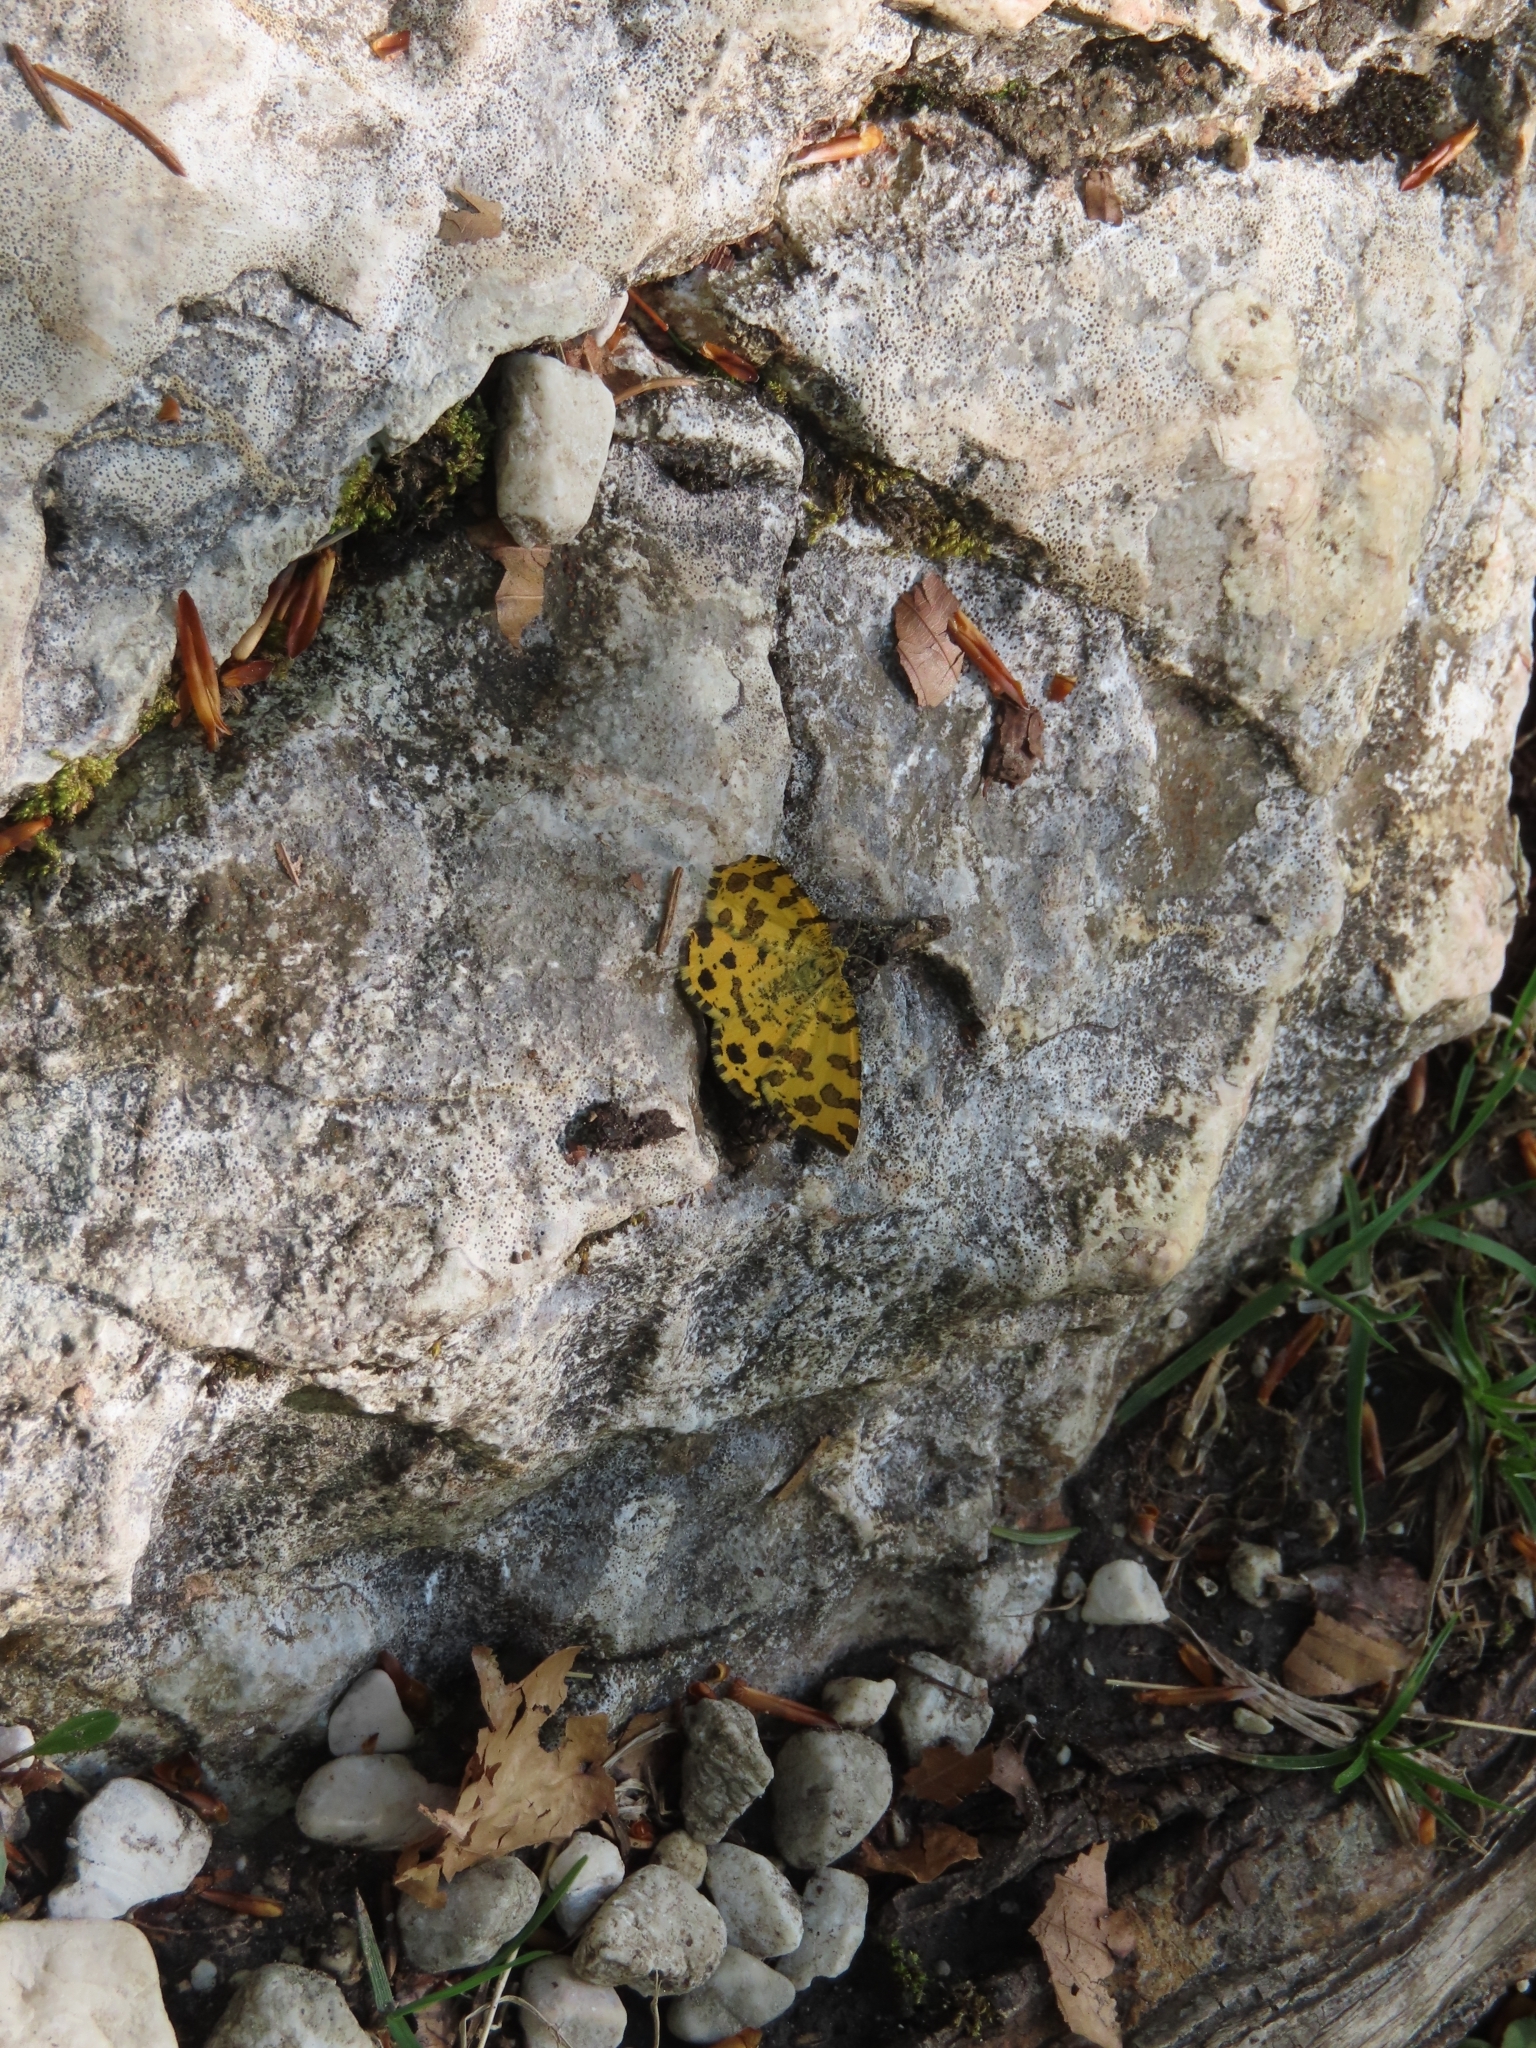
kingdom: Animalia
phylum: Arthropoda
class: Insecta
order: Lepidoptera
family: Geometridae
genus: Pseudopanthera
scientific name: Pseudopanthera macularia
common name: Speckled yellow
